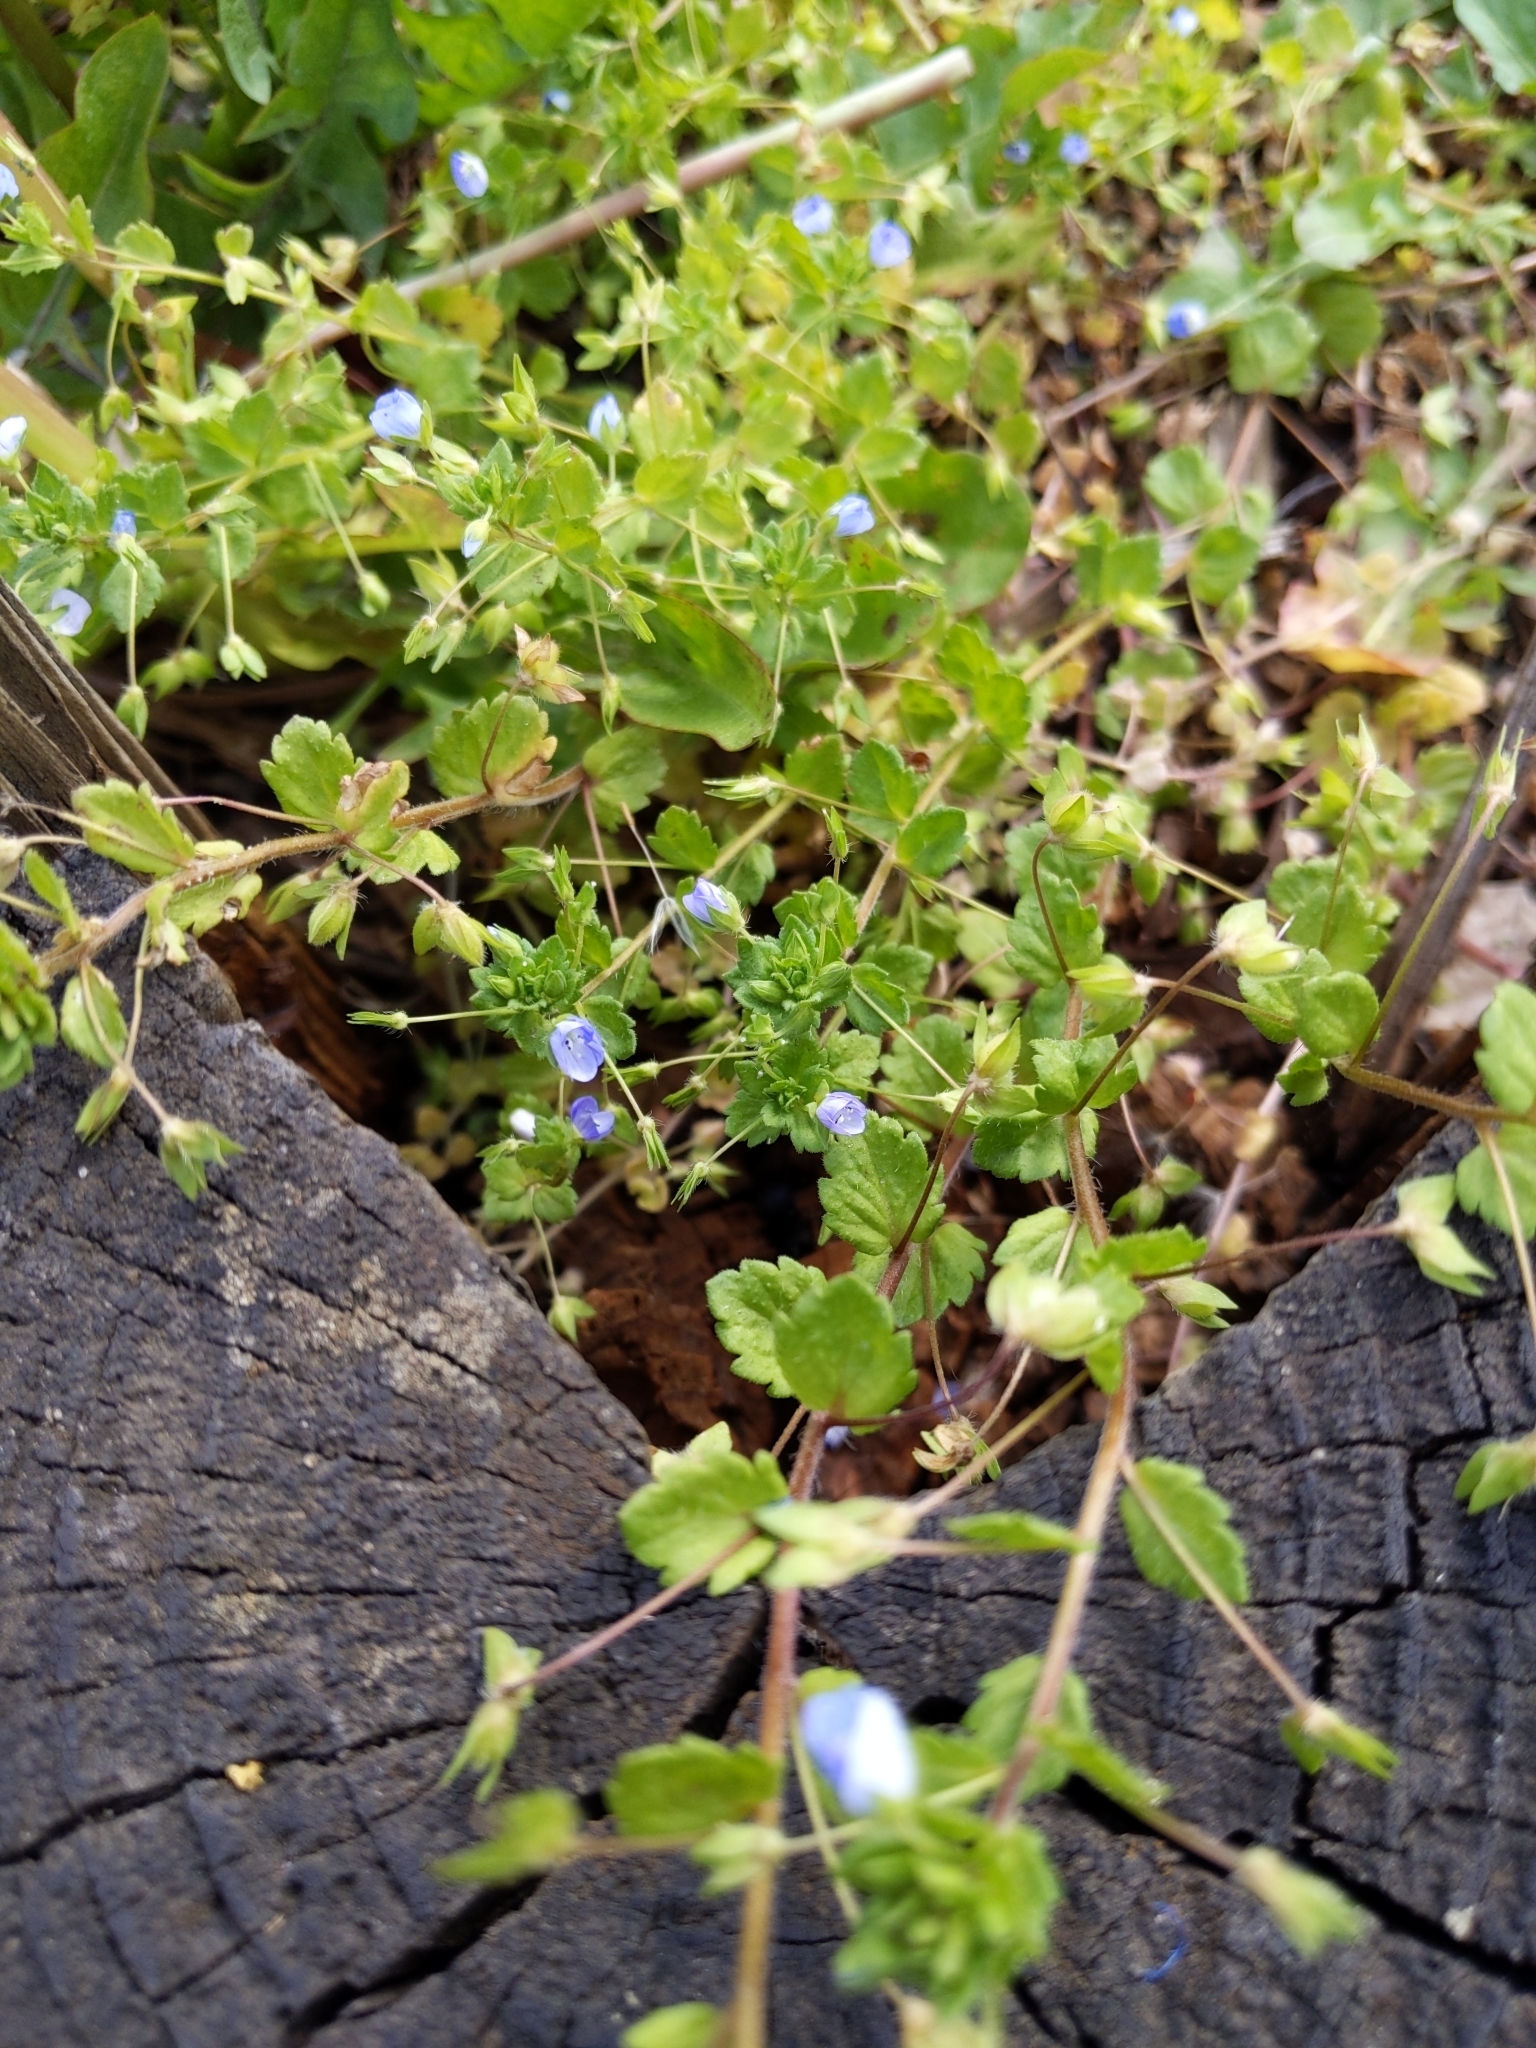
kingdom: Plantae
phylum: Tracheophyta
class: Magnoliopsida
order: Lamiales
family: Plantaginaceae
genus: Veronica
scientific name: Veronica persica
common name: Common field-speedwell
